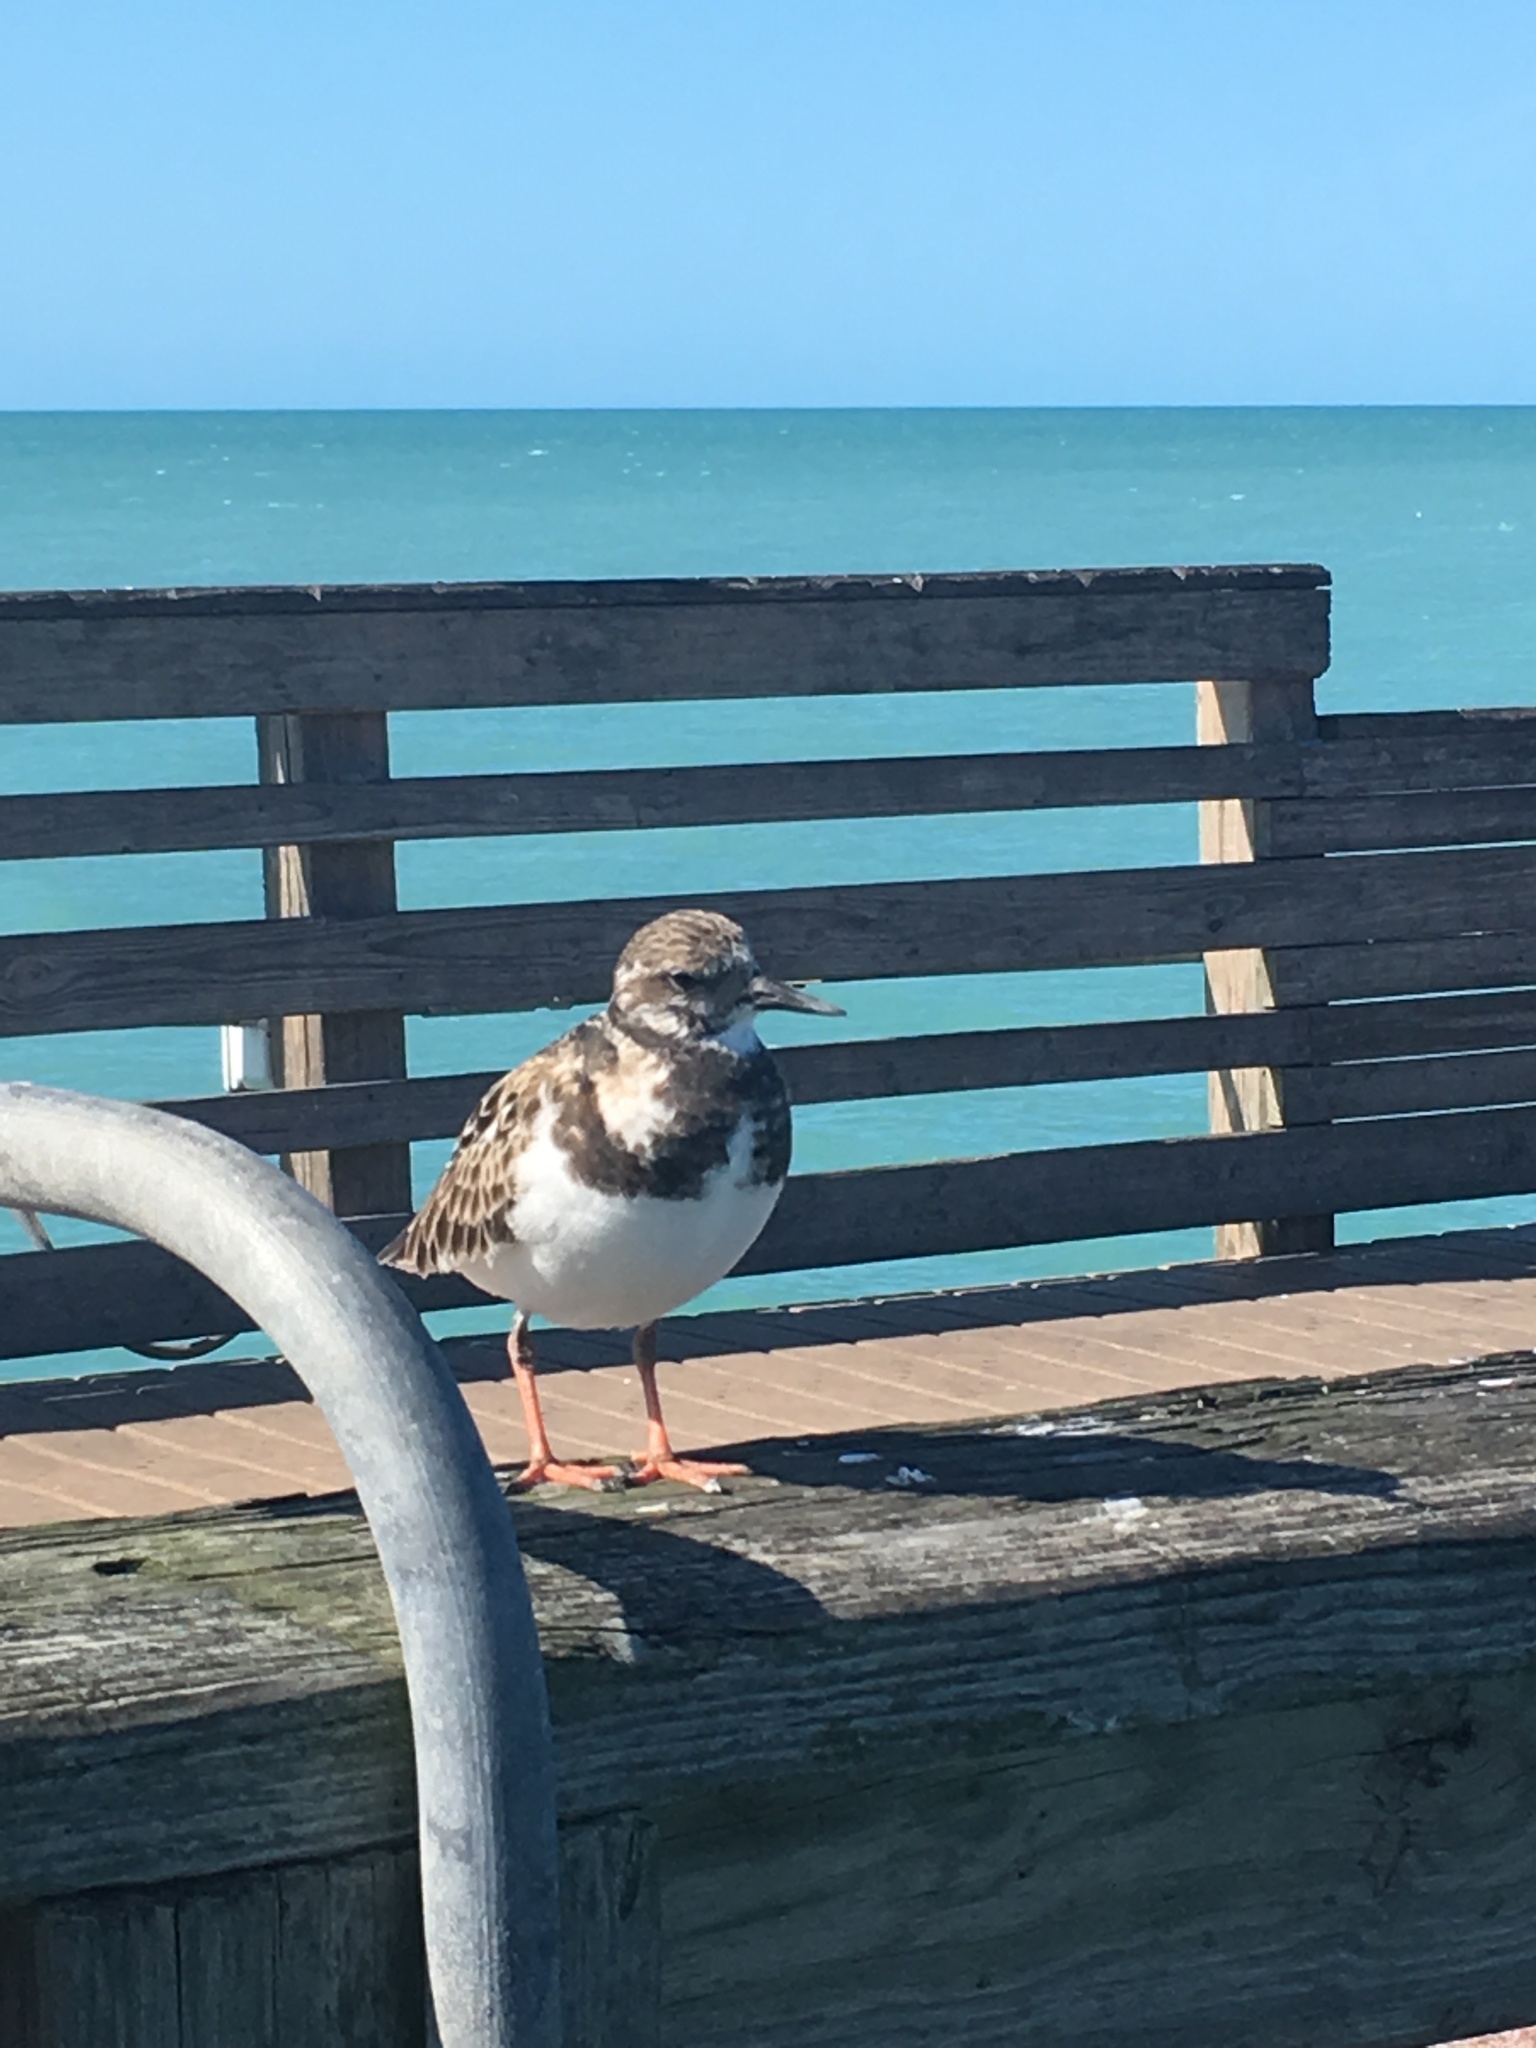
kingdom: Animalia
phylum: Chordata
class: Aves
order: Charadriiformes
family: Scolopacidae
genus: Arenaria
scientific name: Arenaria interpres
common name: Ruddy turnstone
